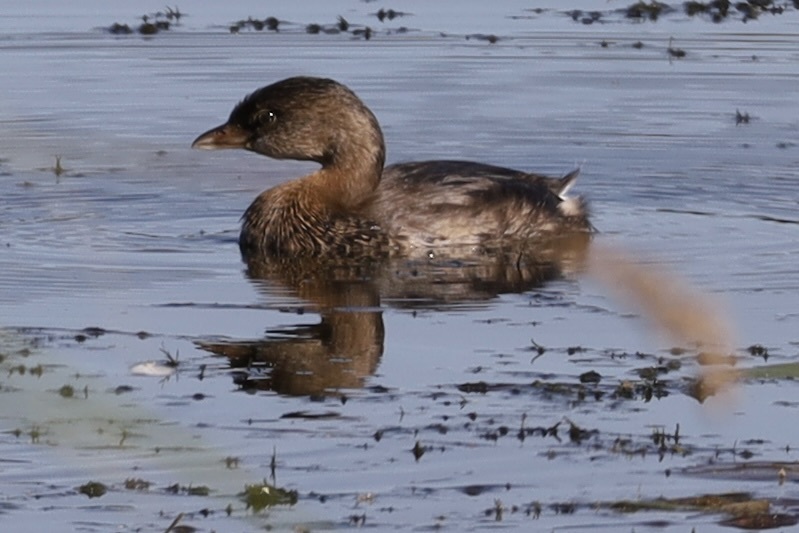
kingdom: Animalia
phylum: Chordata
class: Aves
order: Podicipediformes
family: Podicipedidae
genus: Podilymbus
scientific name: Podilymbus podiceps
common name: Pied-billed grebe
